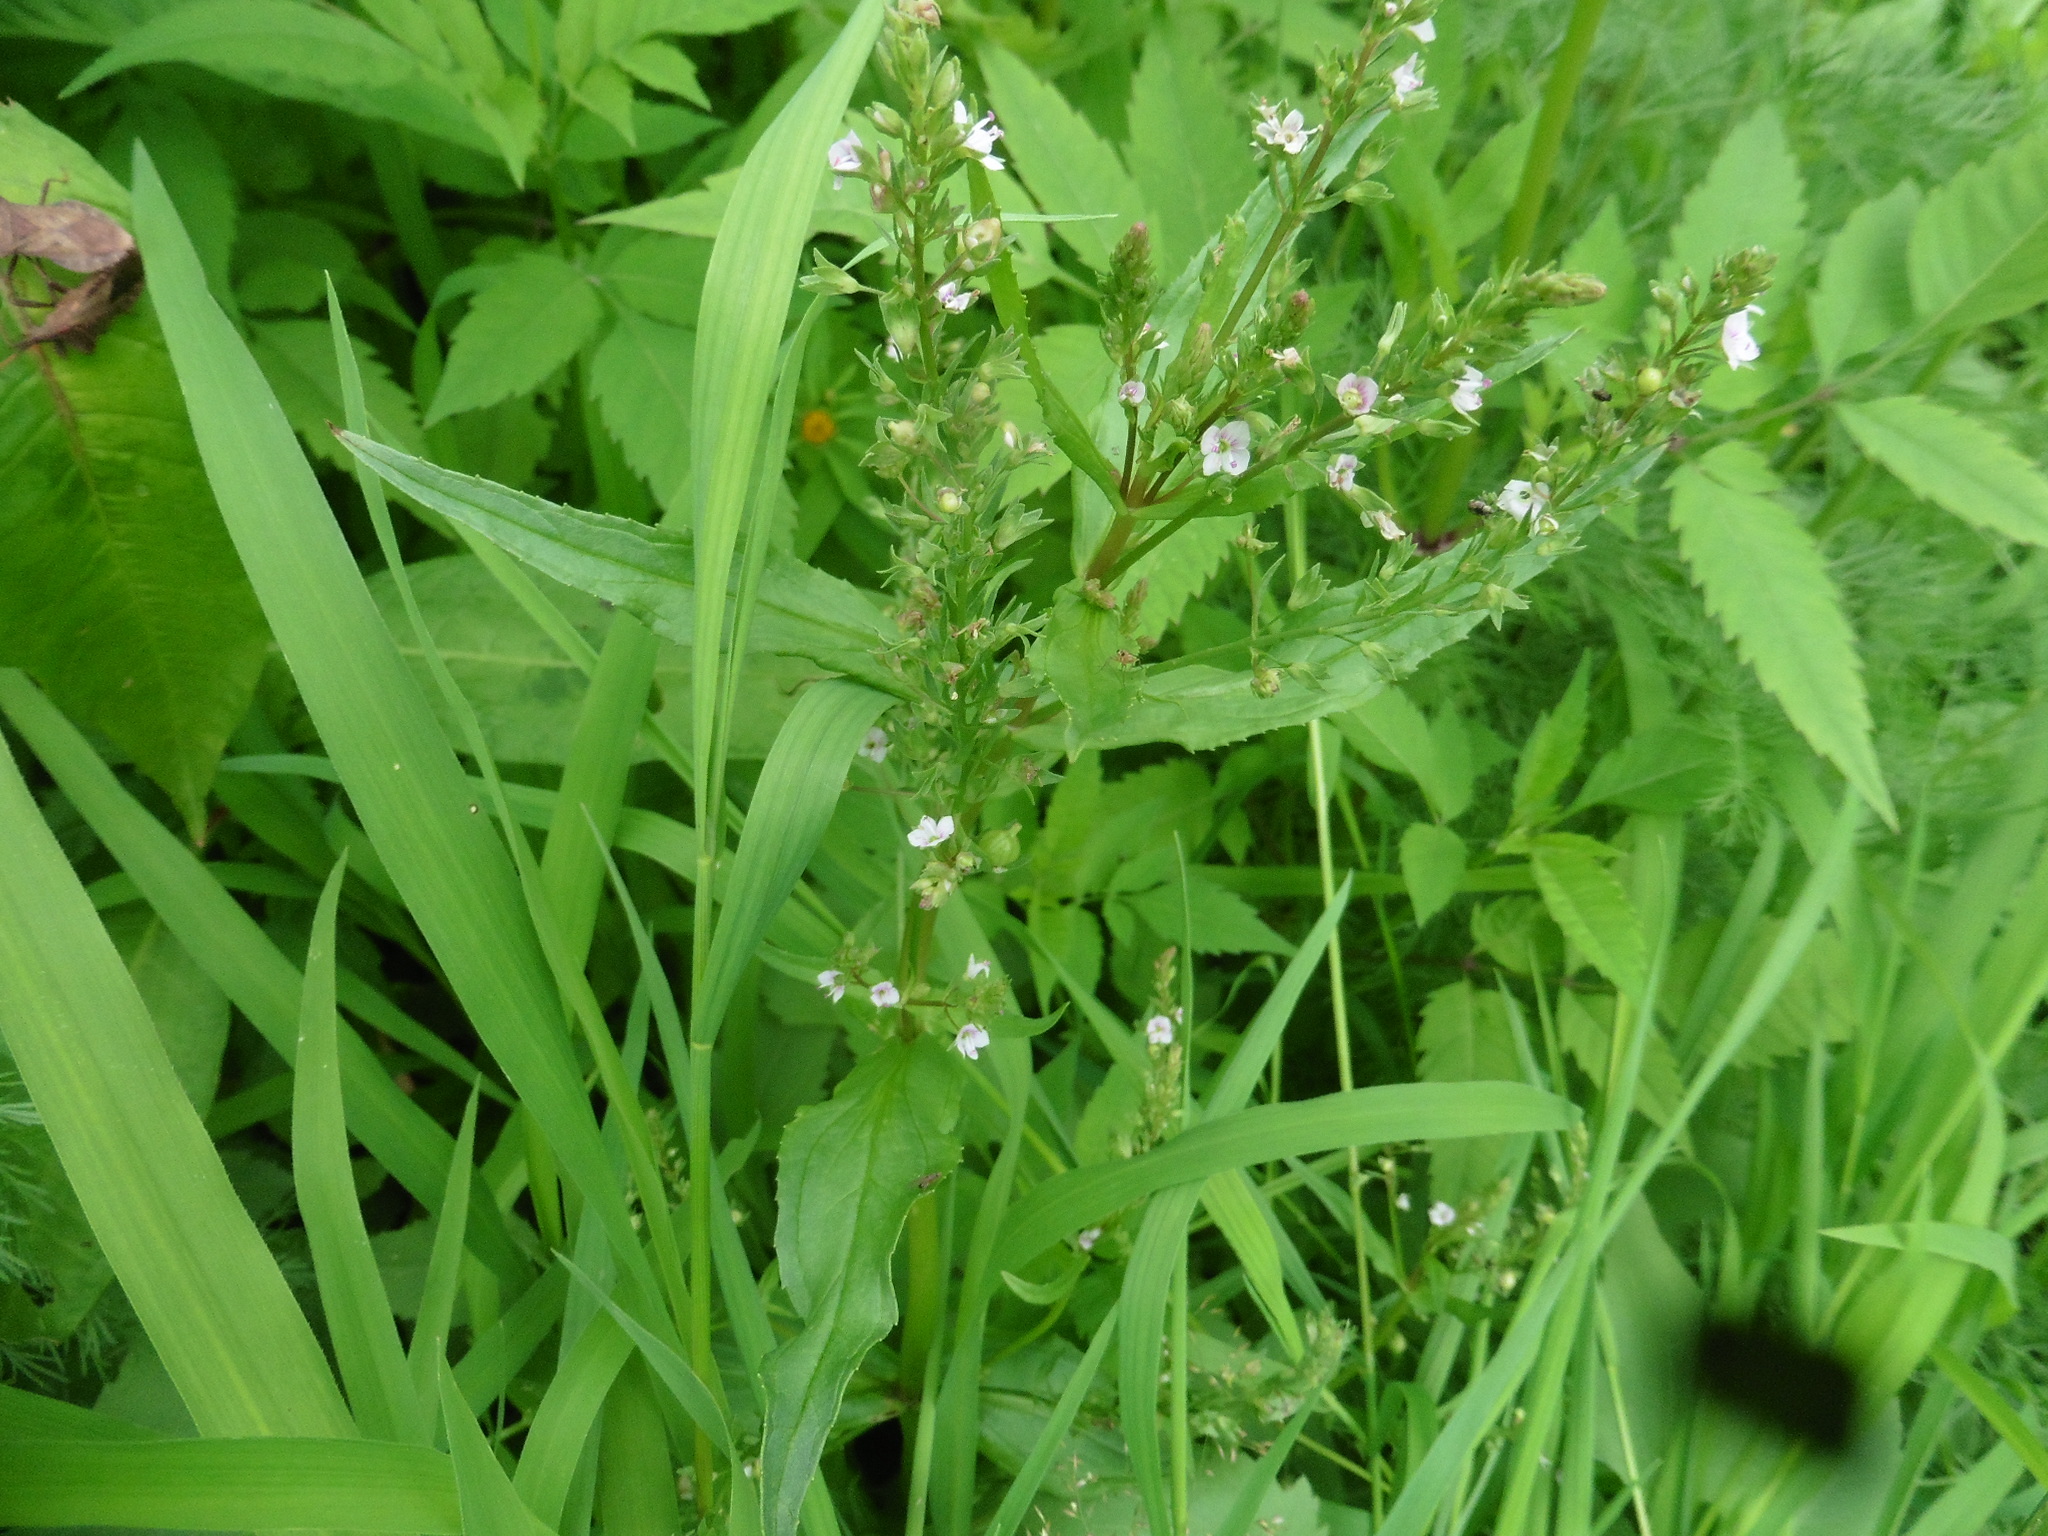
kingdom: Plantae
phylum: Tracheophyta
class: Magnoliopsida
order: Lamiales
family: Plantaginaceae
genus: Veronica
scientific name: Veronica anagallis-aquatica
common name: Water speedwell
